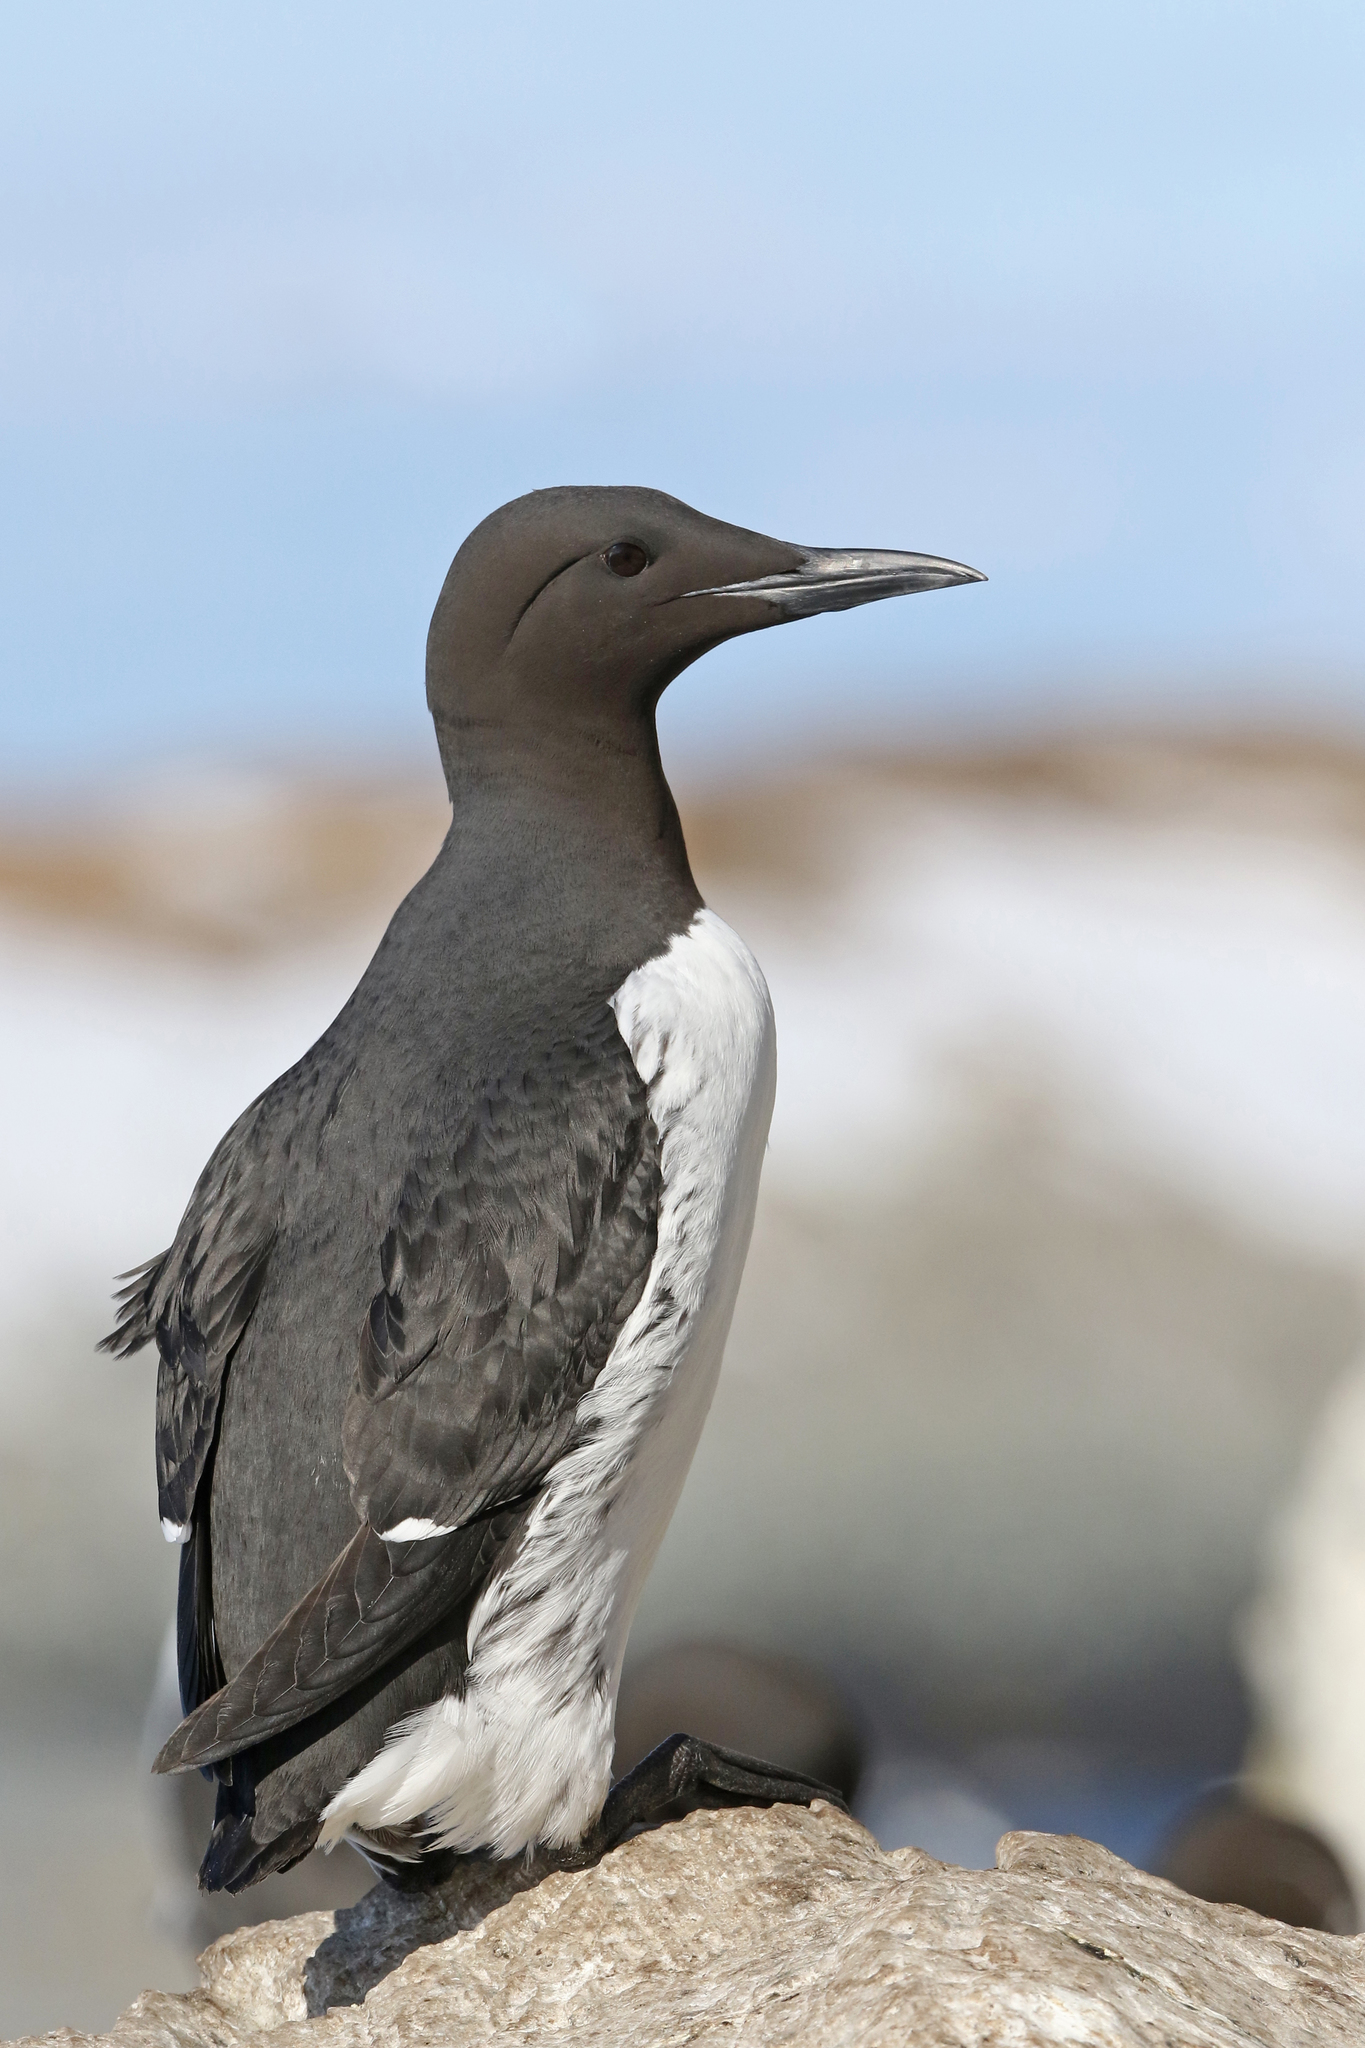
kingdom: Animalia
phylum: Chordata
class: Aves
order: Charadriiformes
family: Alcidae
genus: Uria
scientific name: Uria aalge
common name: Common murre
